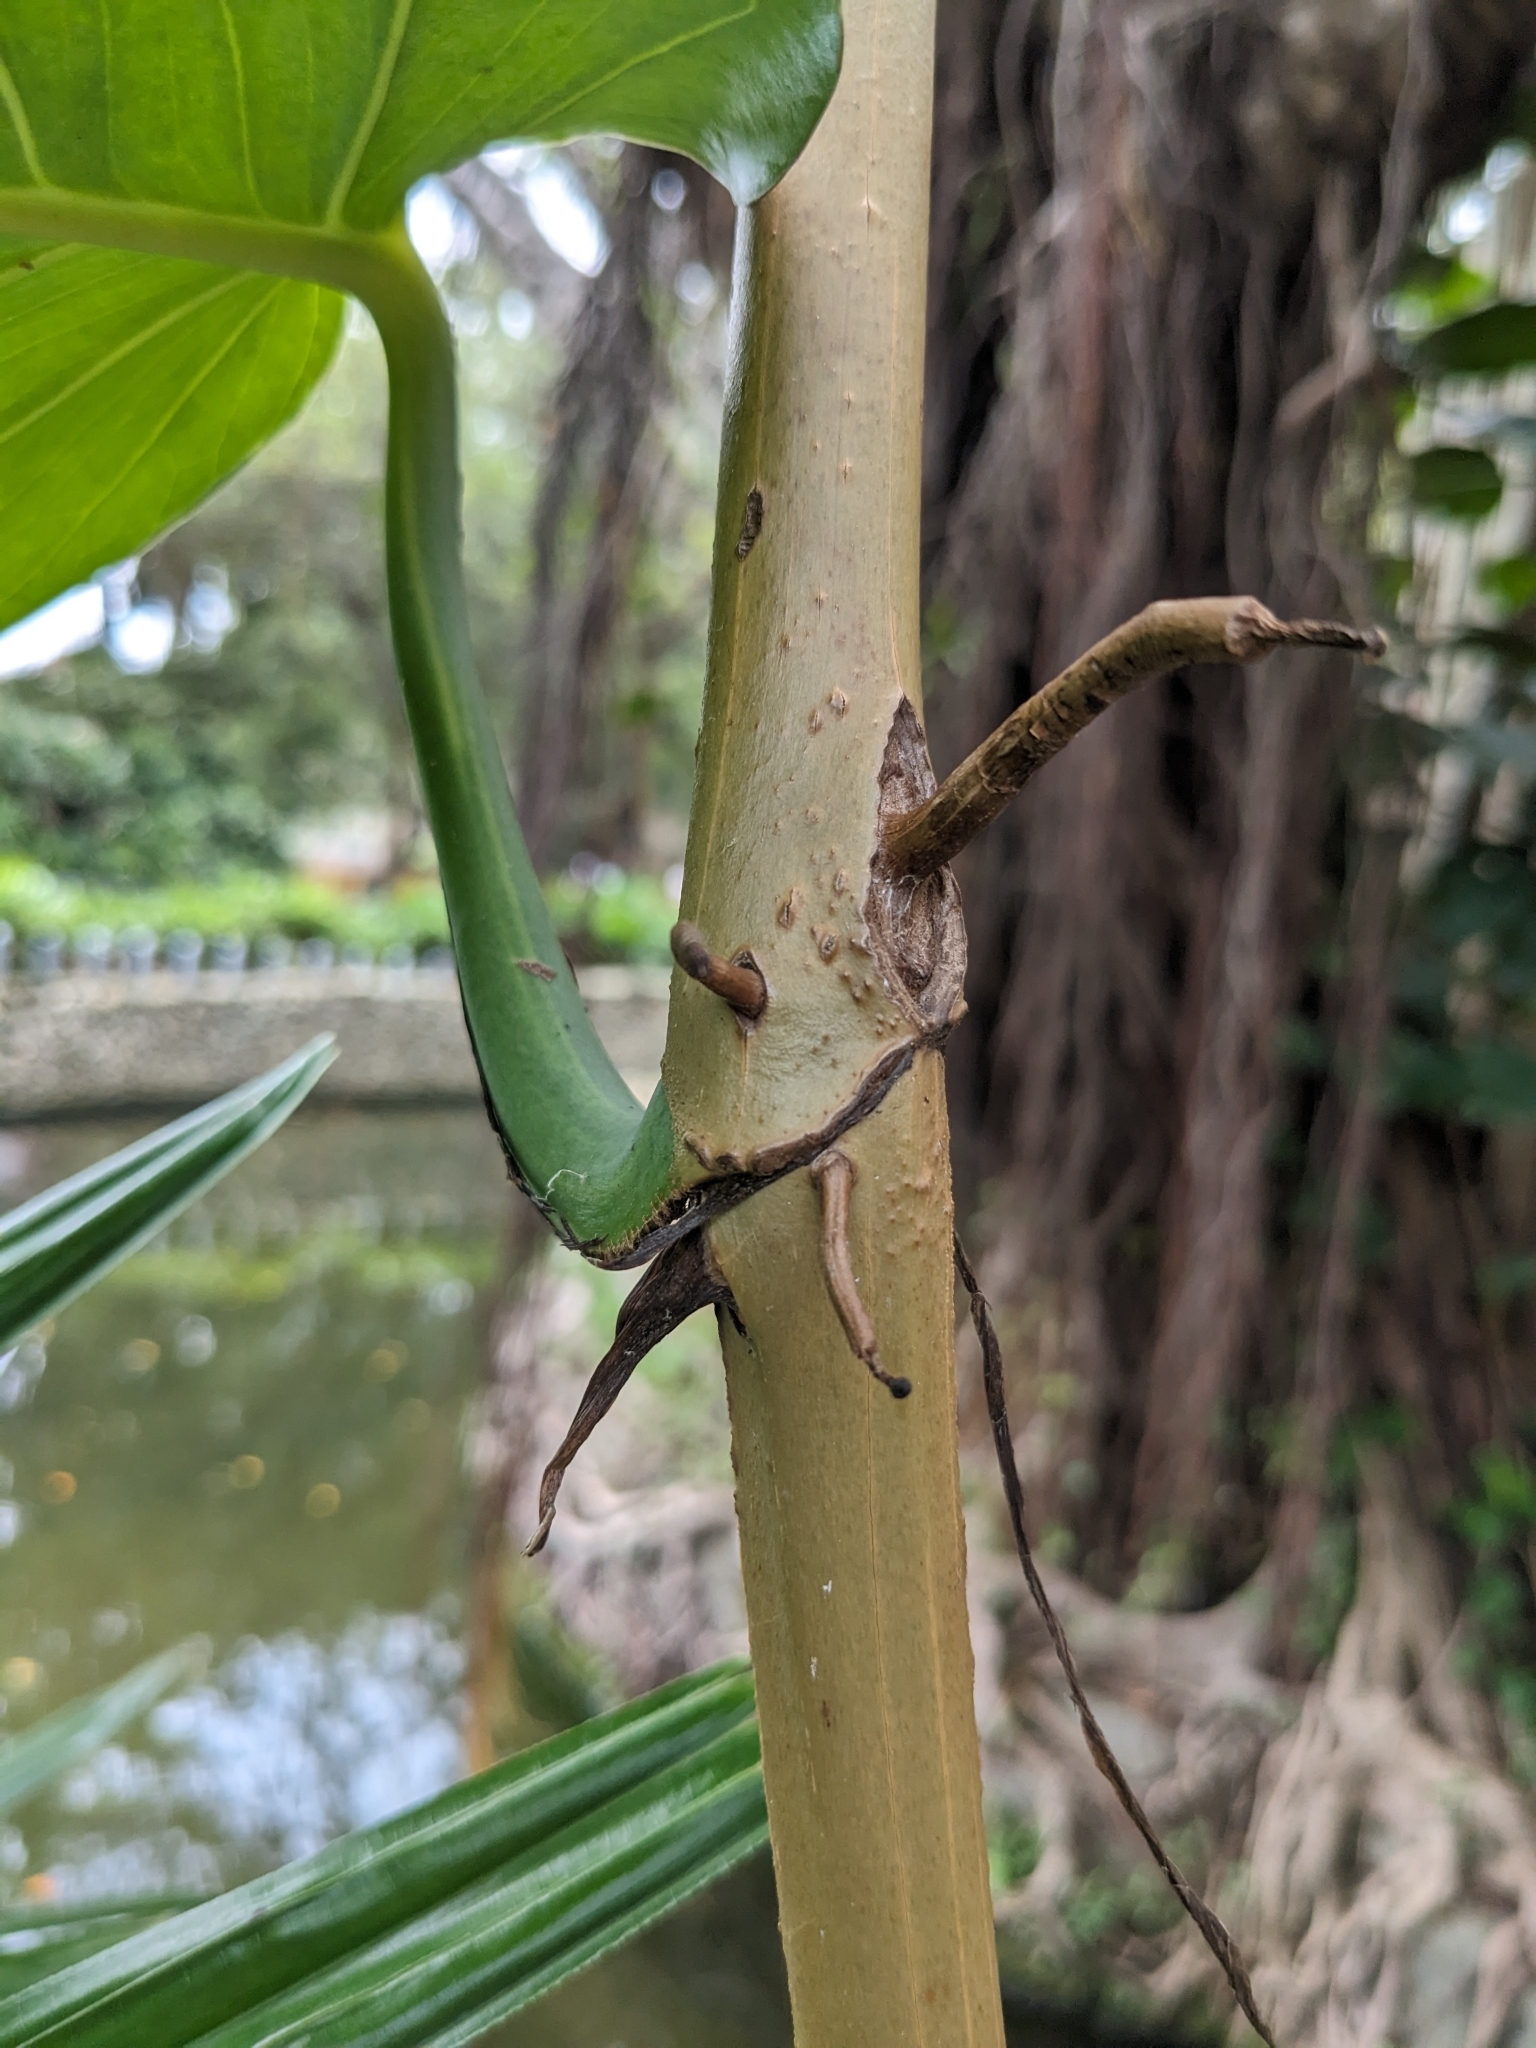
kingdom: Plantae
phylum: Tracheophyta
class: Liliopsida
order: Alismatales
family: Araceae
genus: Epipremnum
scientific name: Epipremnum aureum
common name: Golden hunter's-robe
